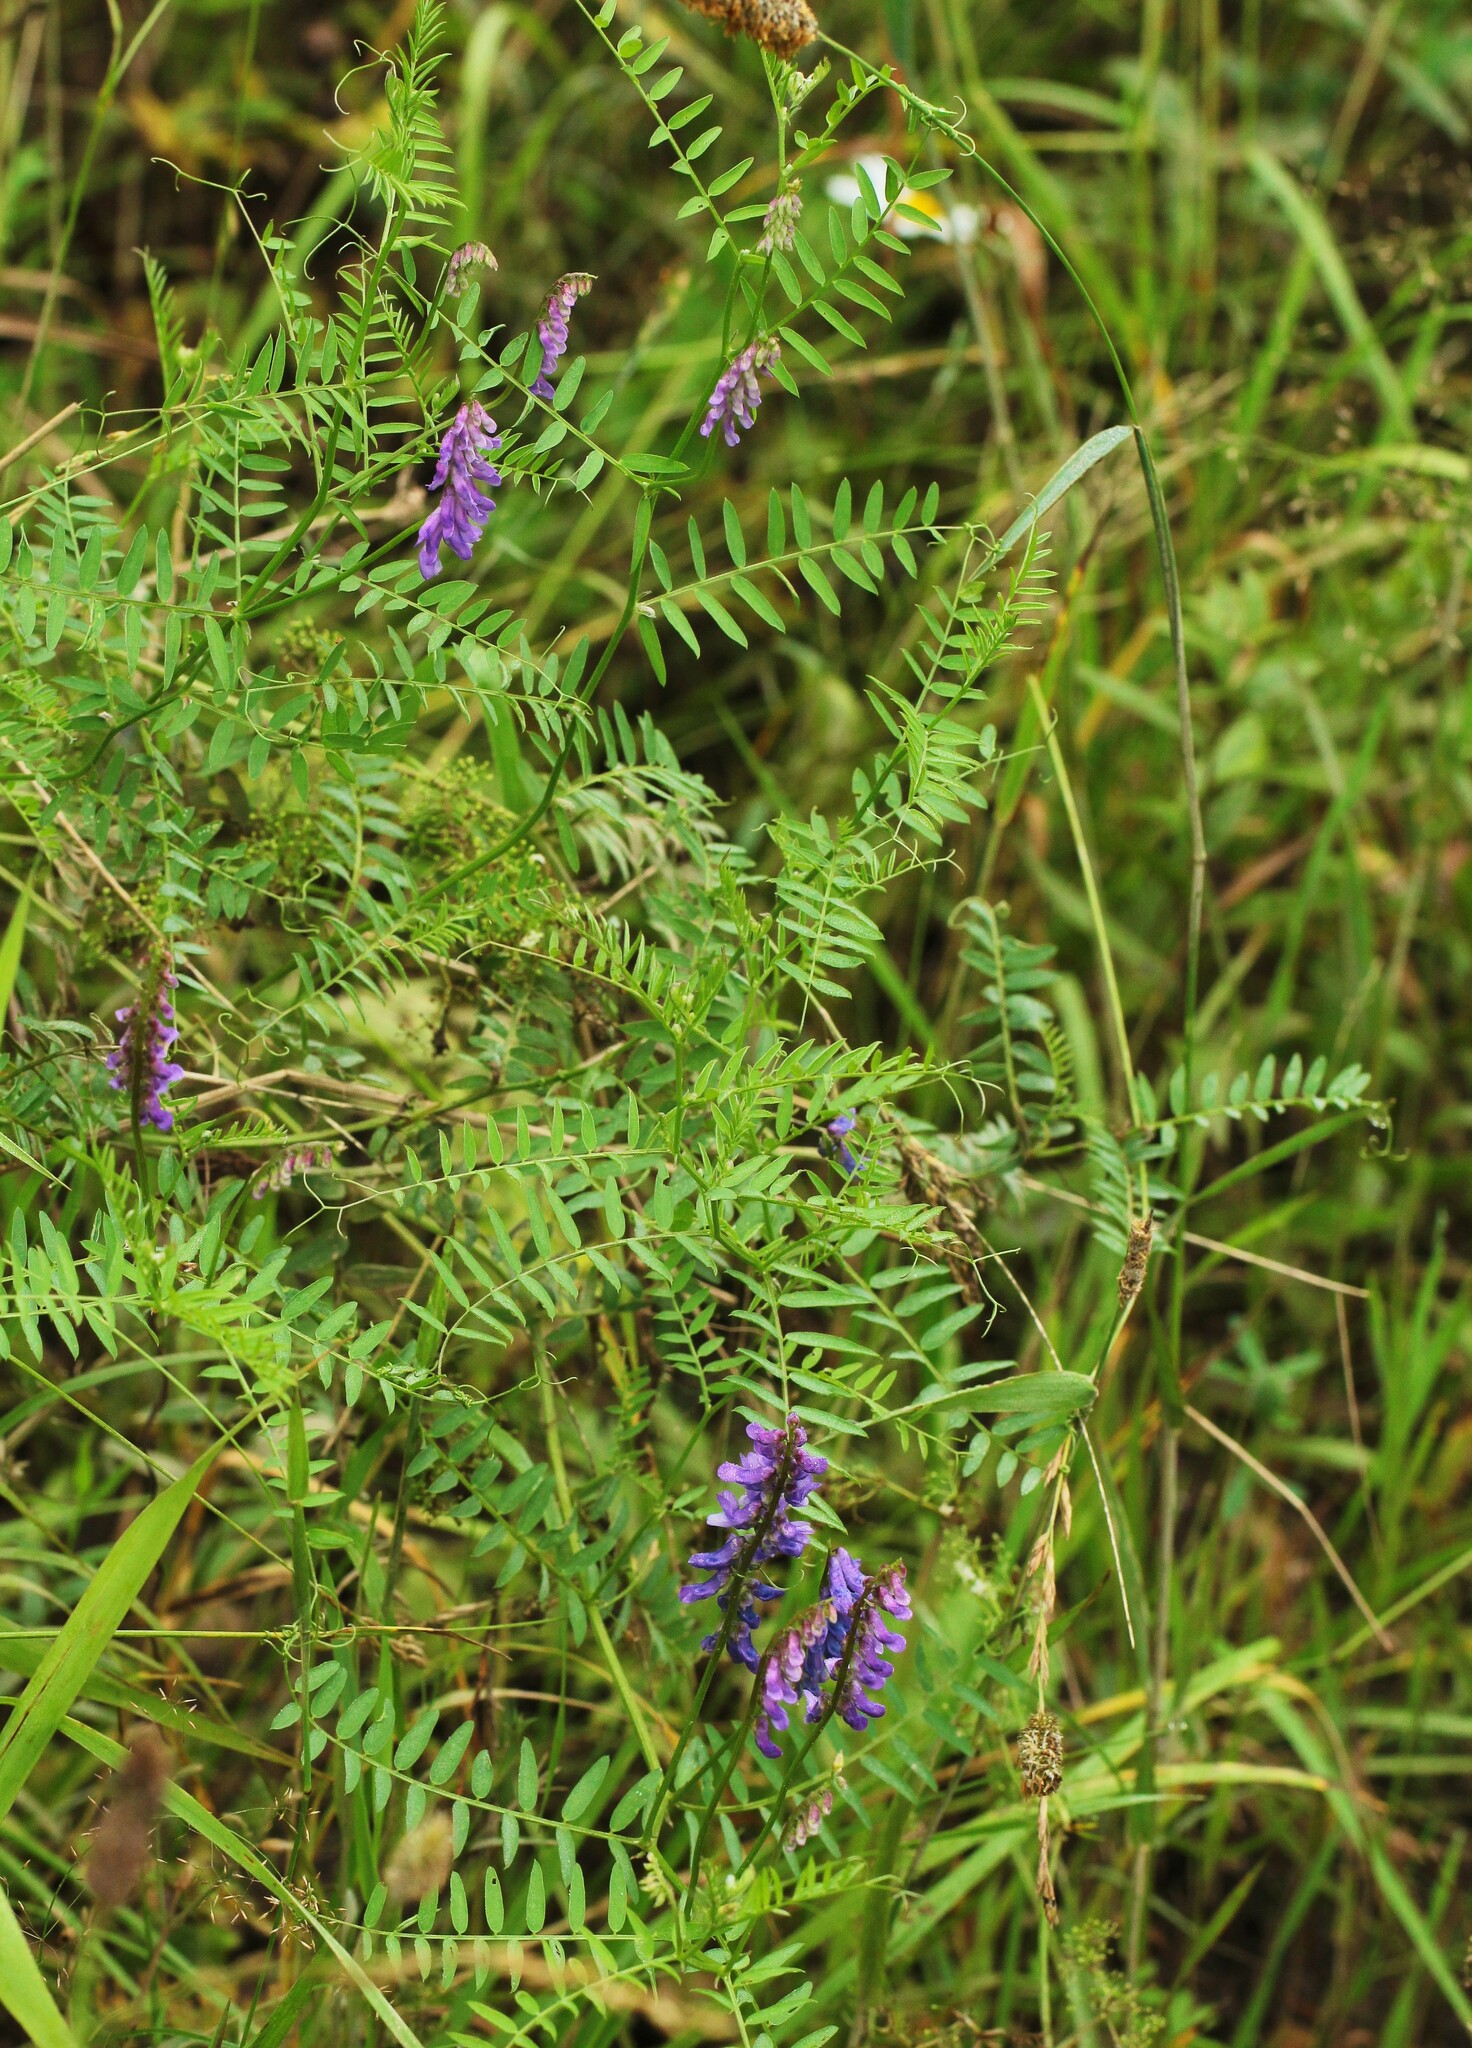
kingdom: Plantae
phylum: Tracheophyta
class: Magnoliopsida
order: Fabales
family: Fabaceae
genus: Vicia
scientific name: Vicia cracca
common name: Bird vetch
